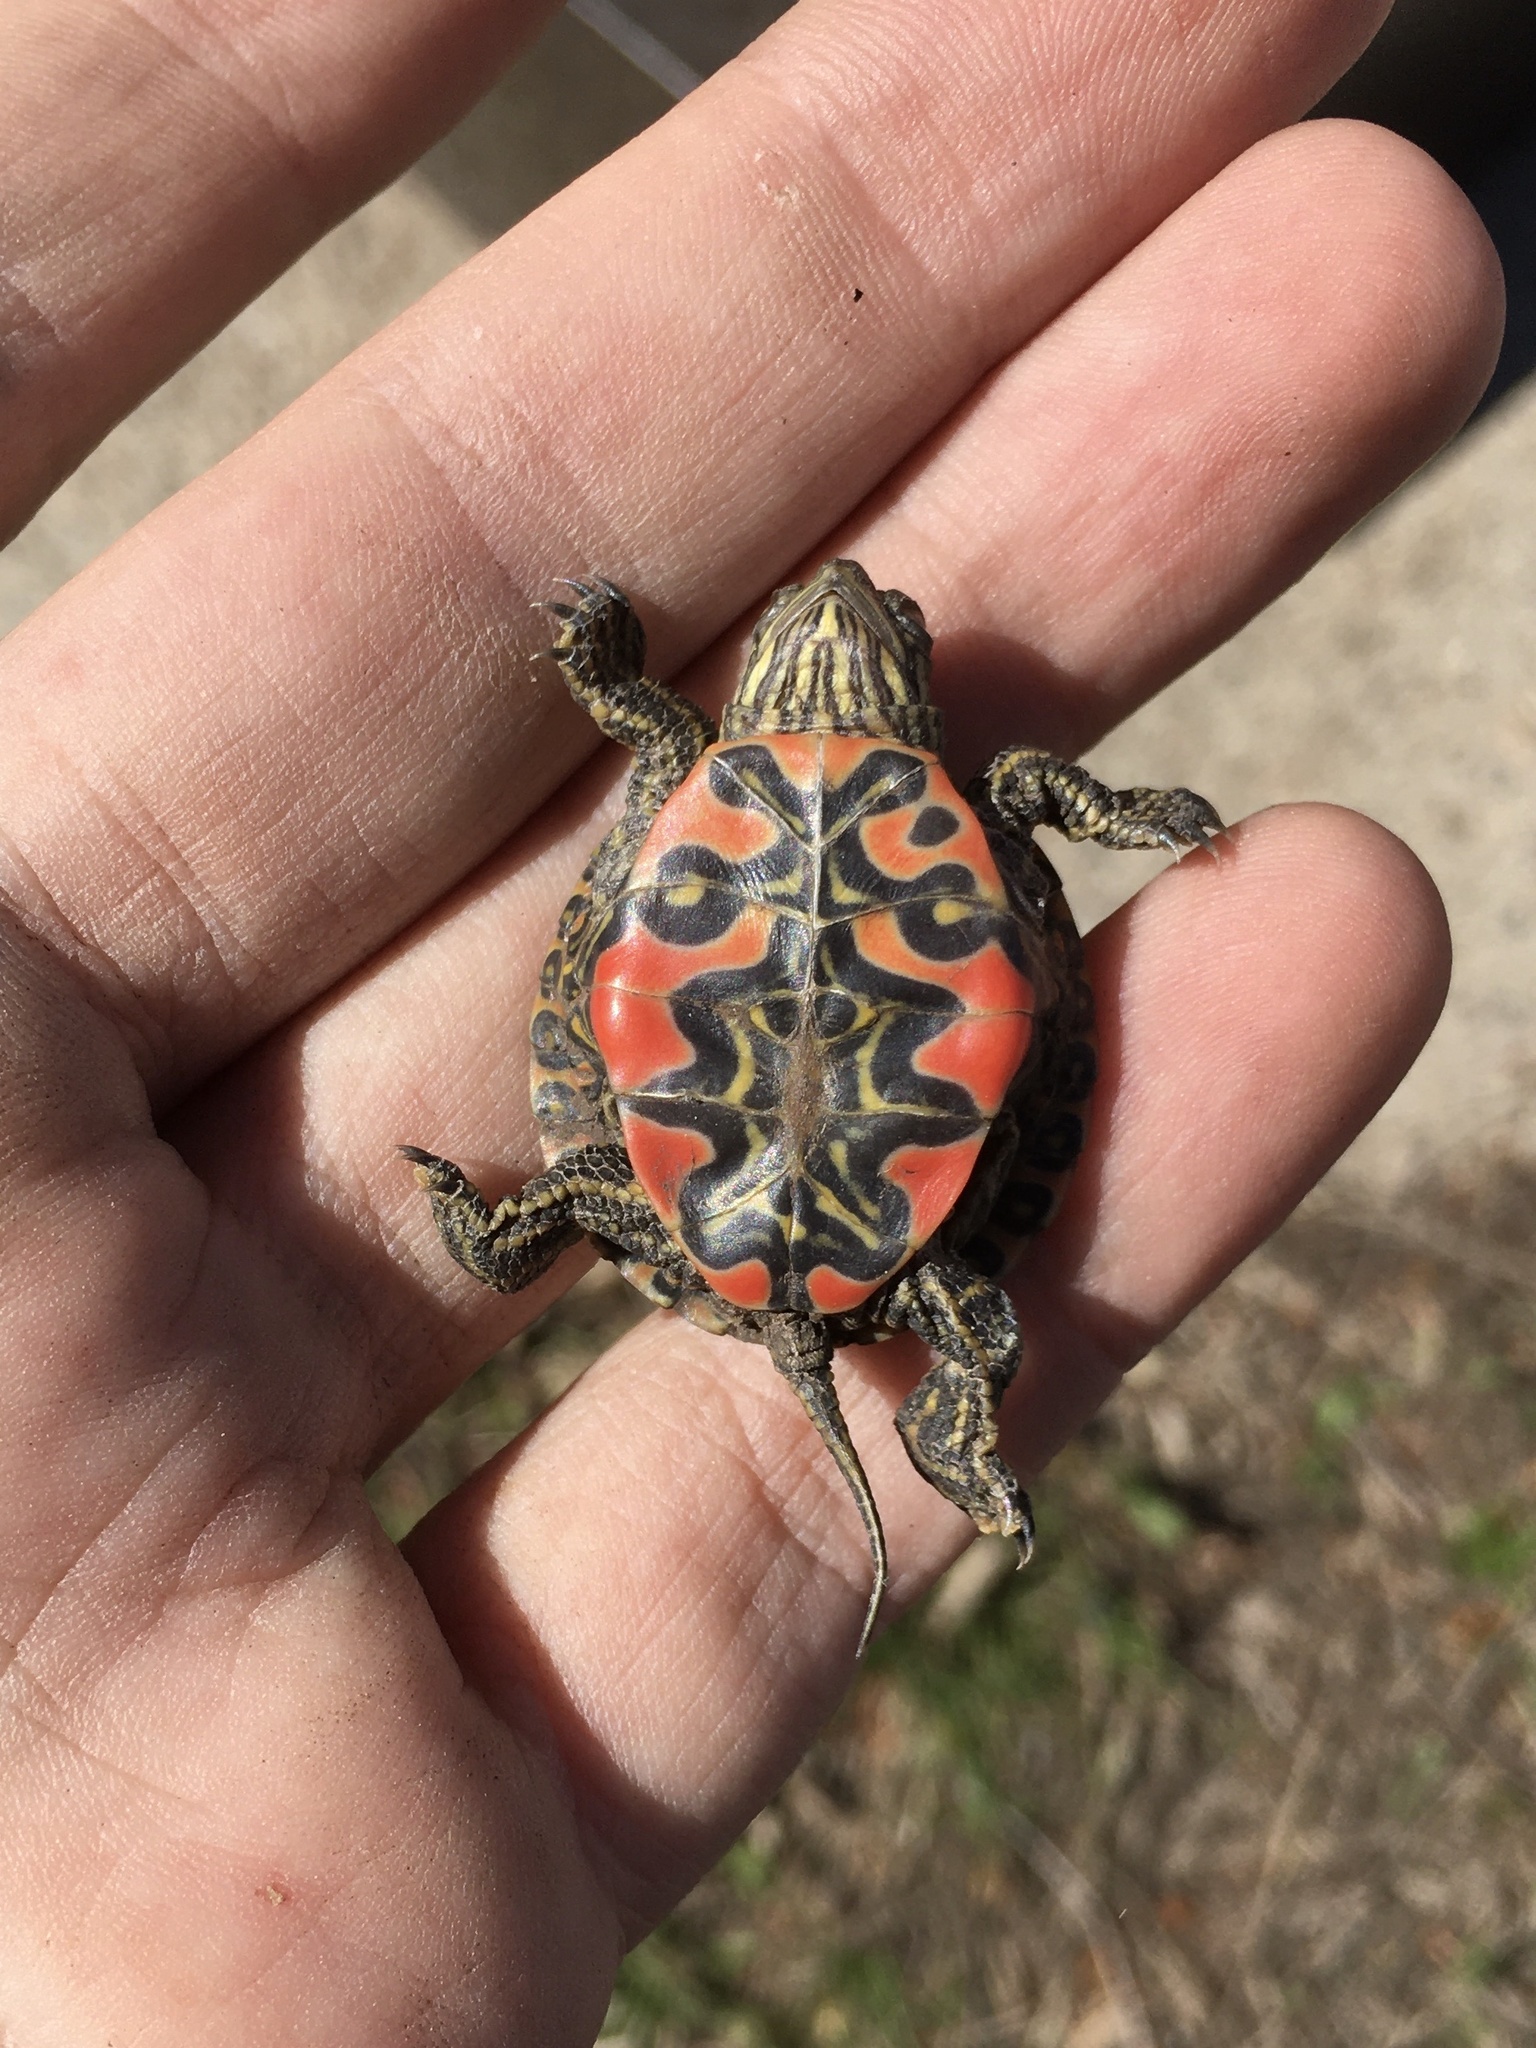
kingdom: Animalia
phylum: Chordata
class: Testudines
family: Emydidae
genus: Chrysemys
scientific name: Chrysemys picta
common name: Painted turtle
